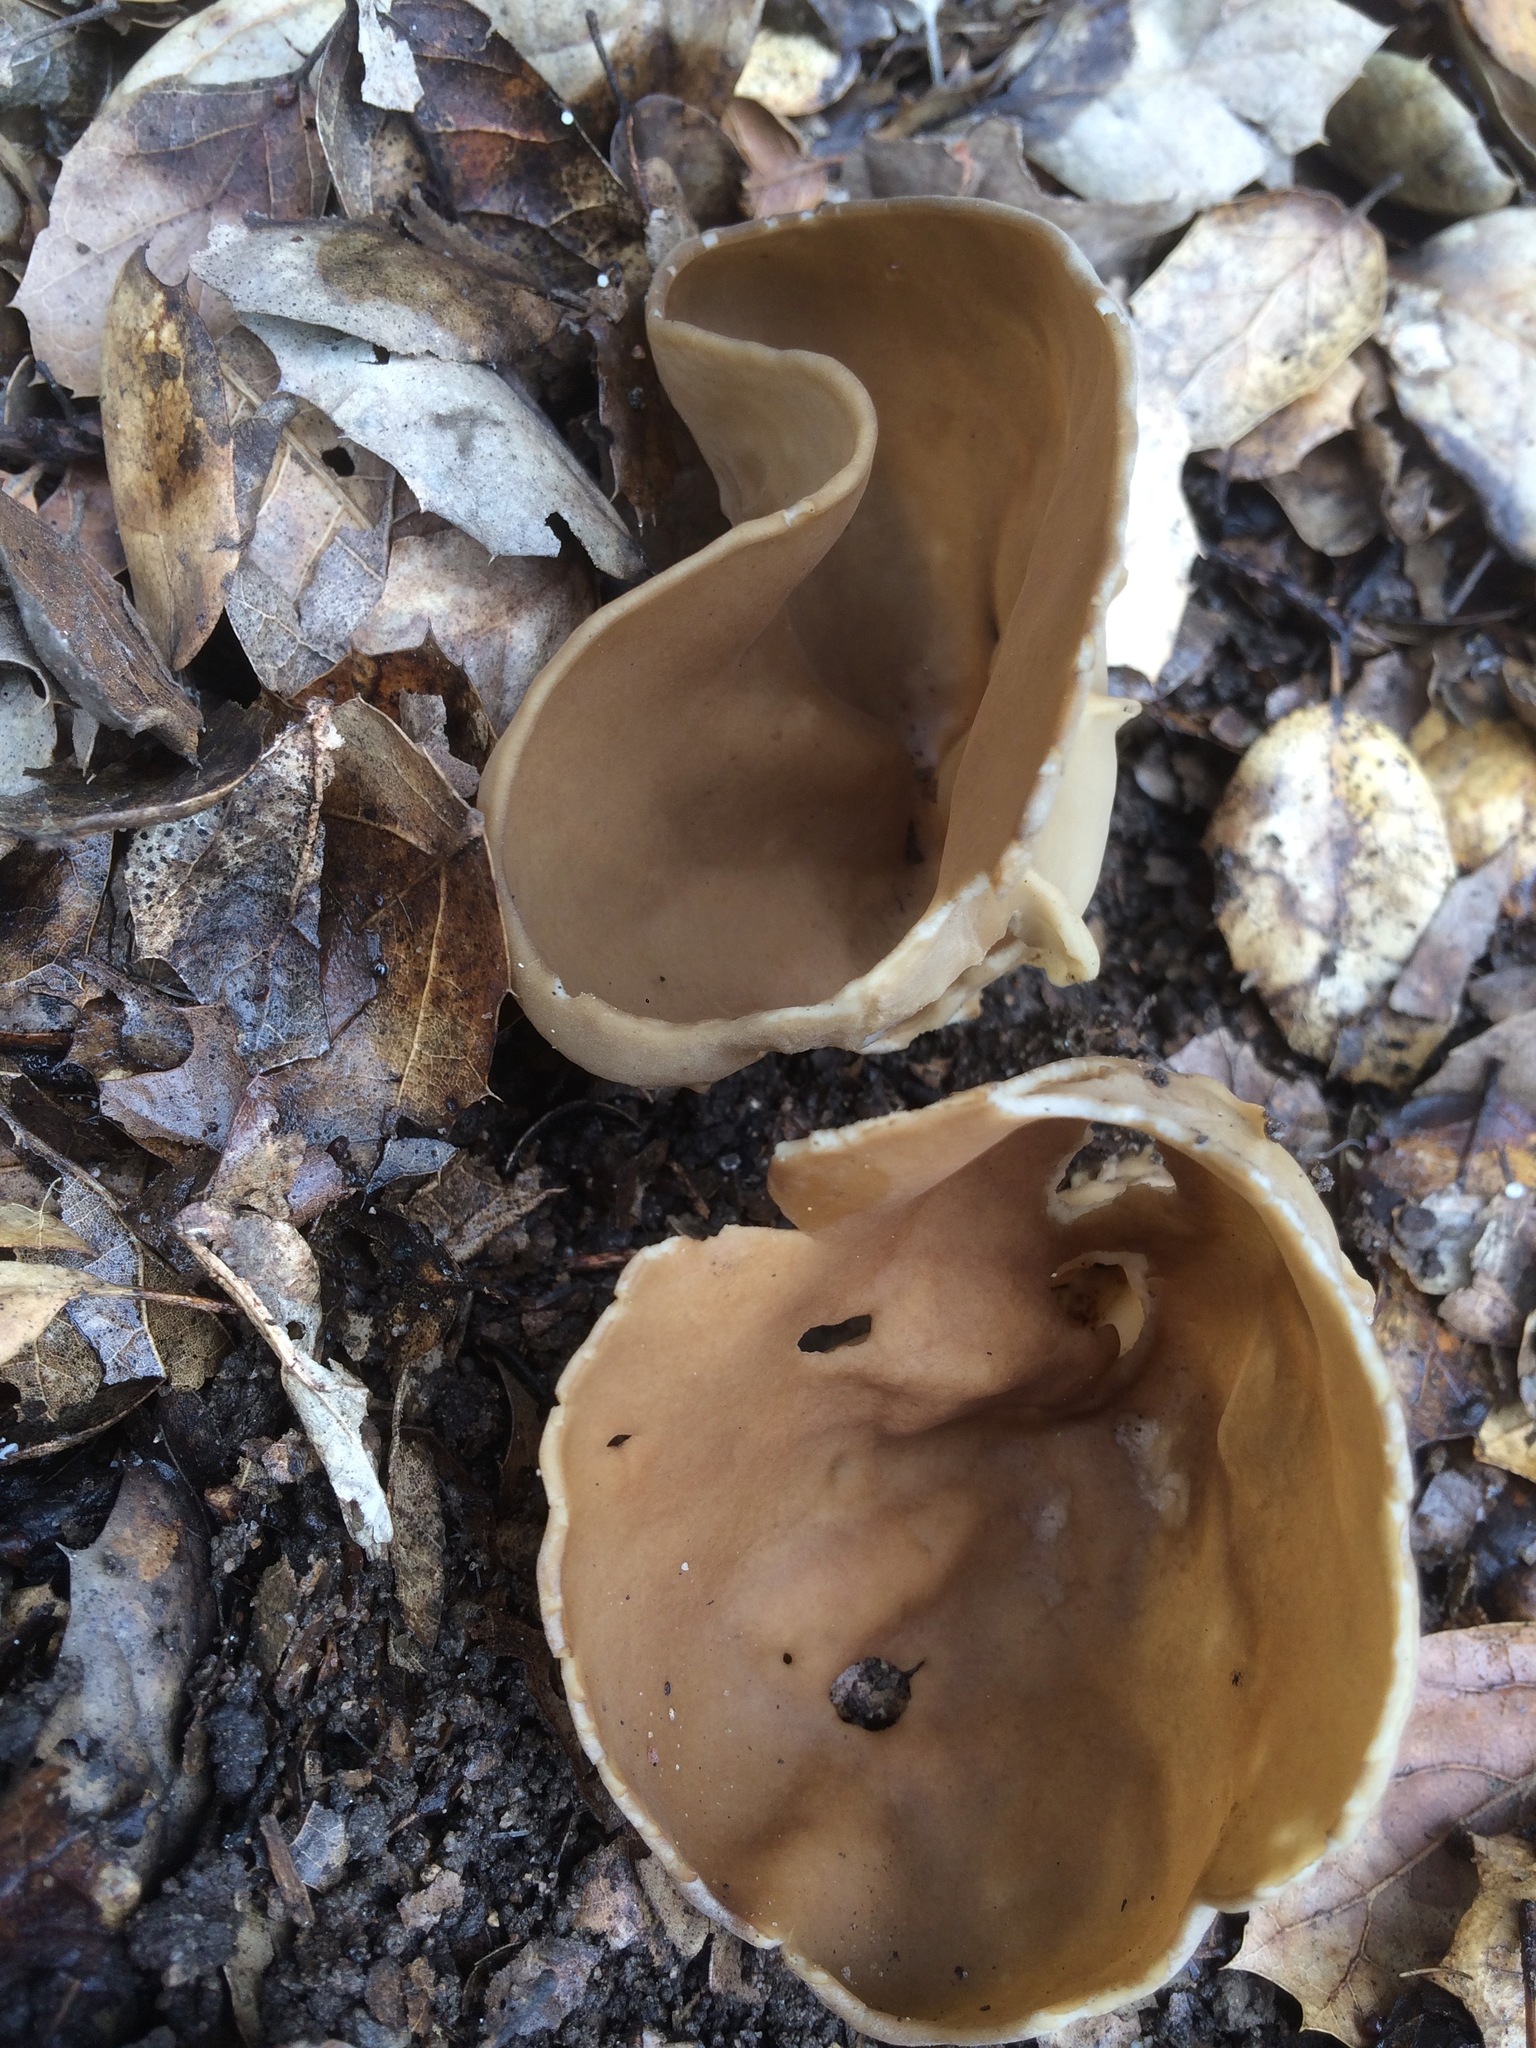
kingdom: Fungi
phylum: Ascomycota
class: Pezizomycetes
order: Pezizales
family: Helvellaceae
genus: Helvella
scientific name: Helvella acetabulum
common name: Vinegar cup
